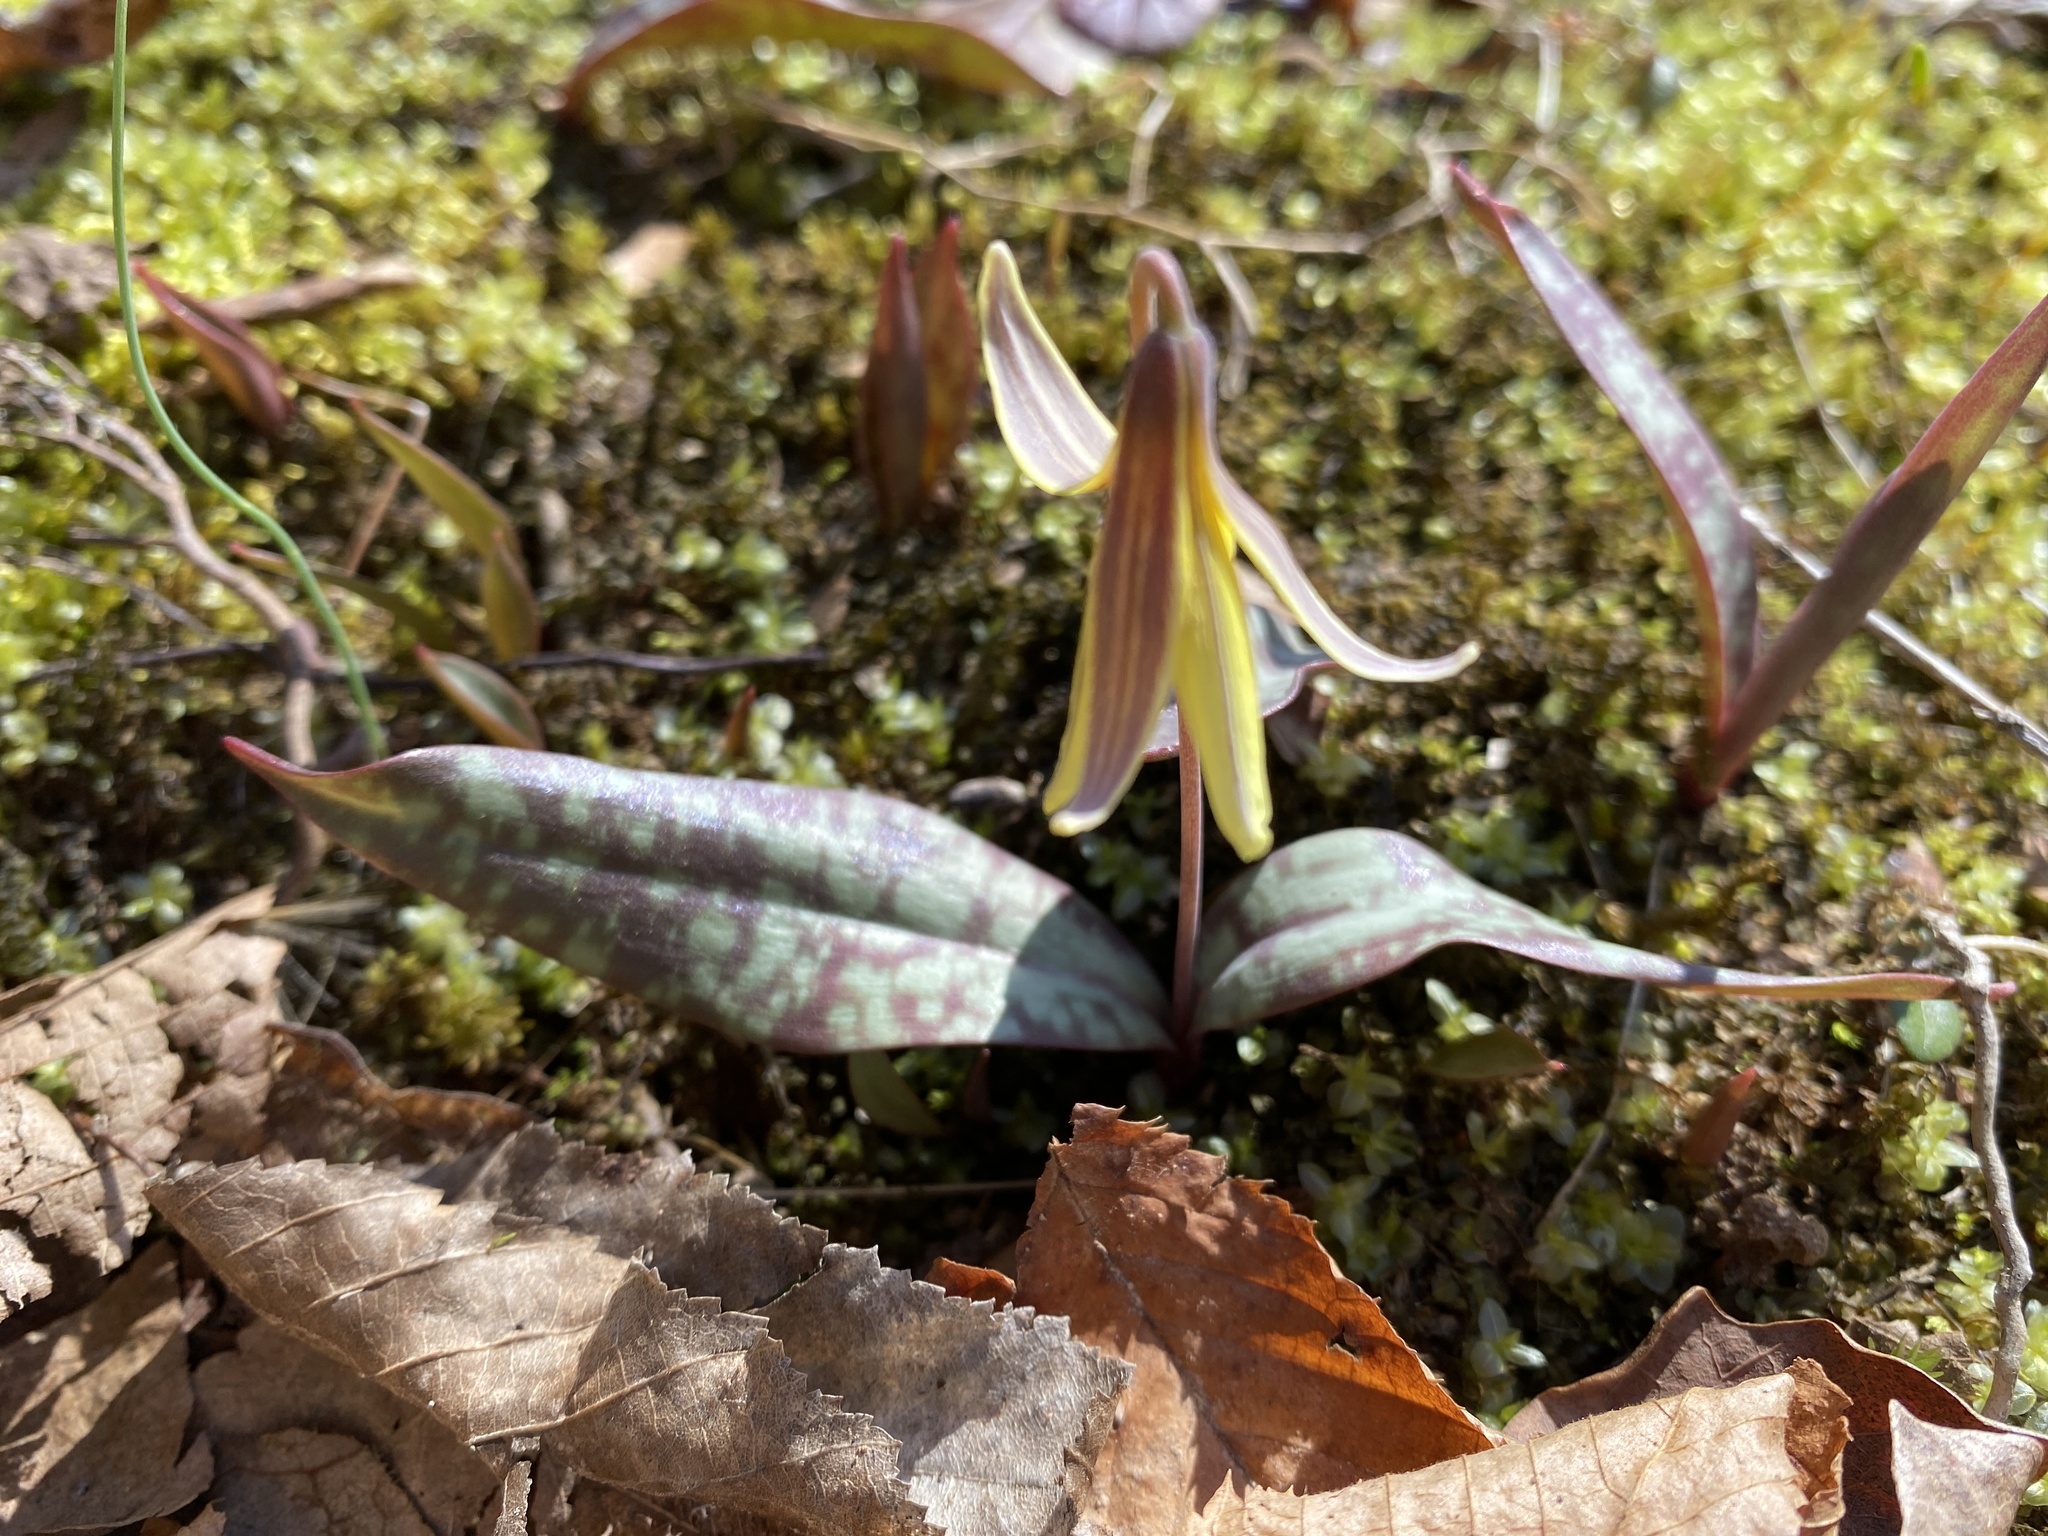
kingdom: Plantae
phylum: Tracheophyta
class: Liliopsida
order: Liliales
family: Liliaceae
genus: Erythronium
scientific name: Erythronium umbilicatum
